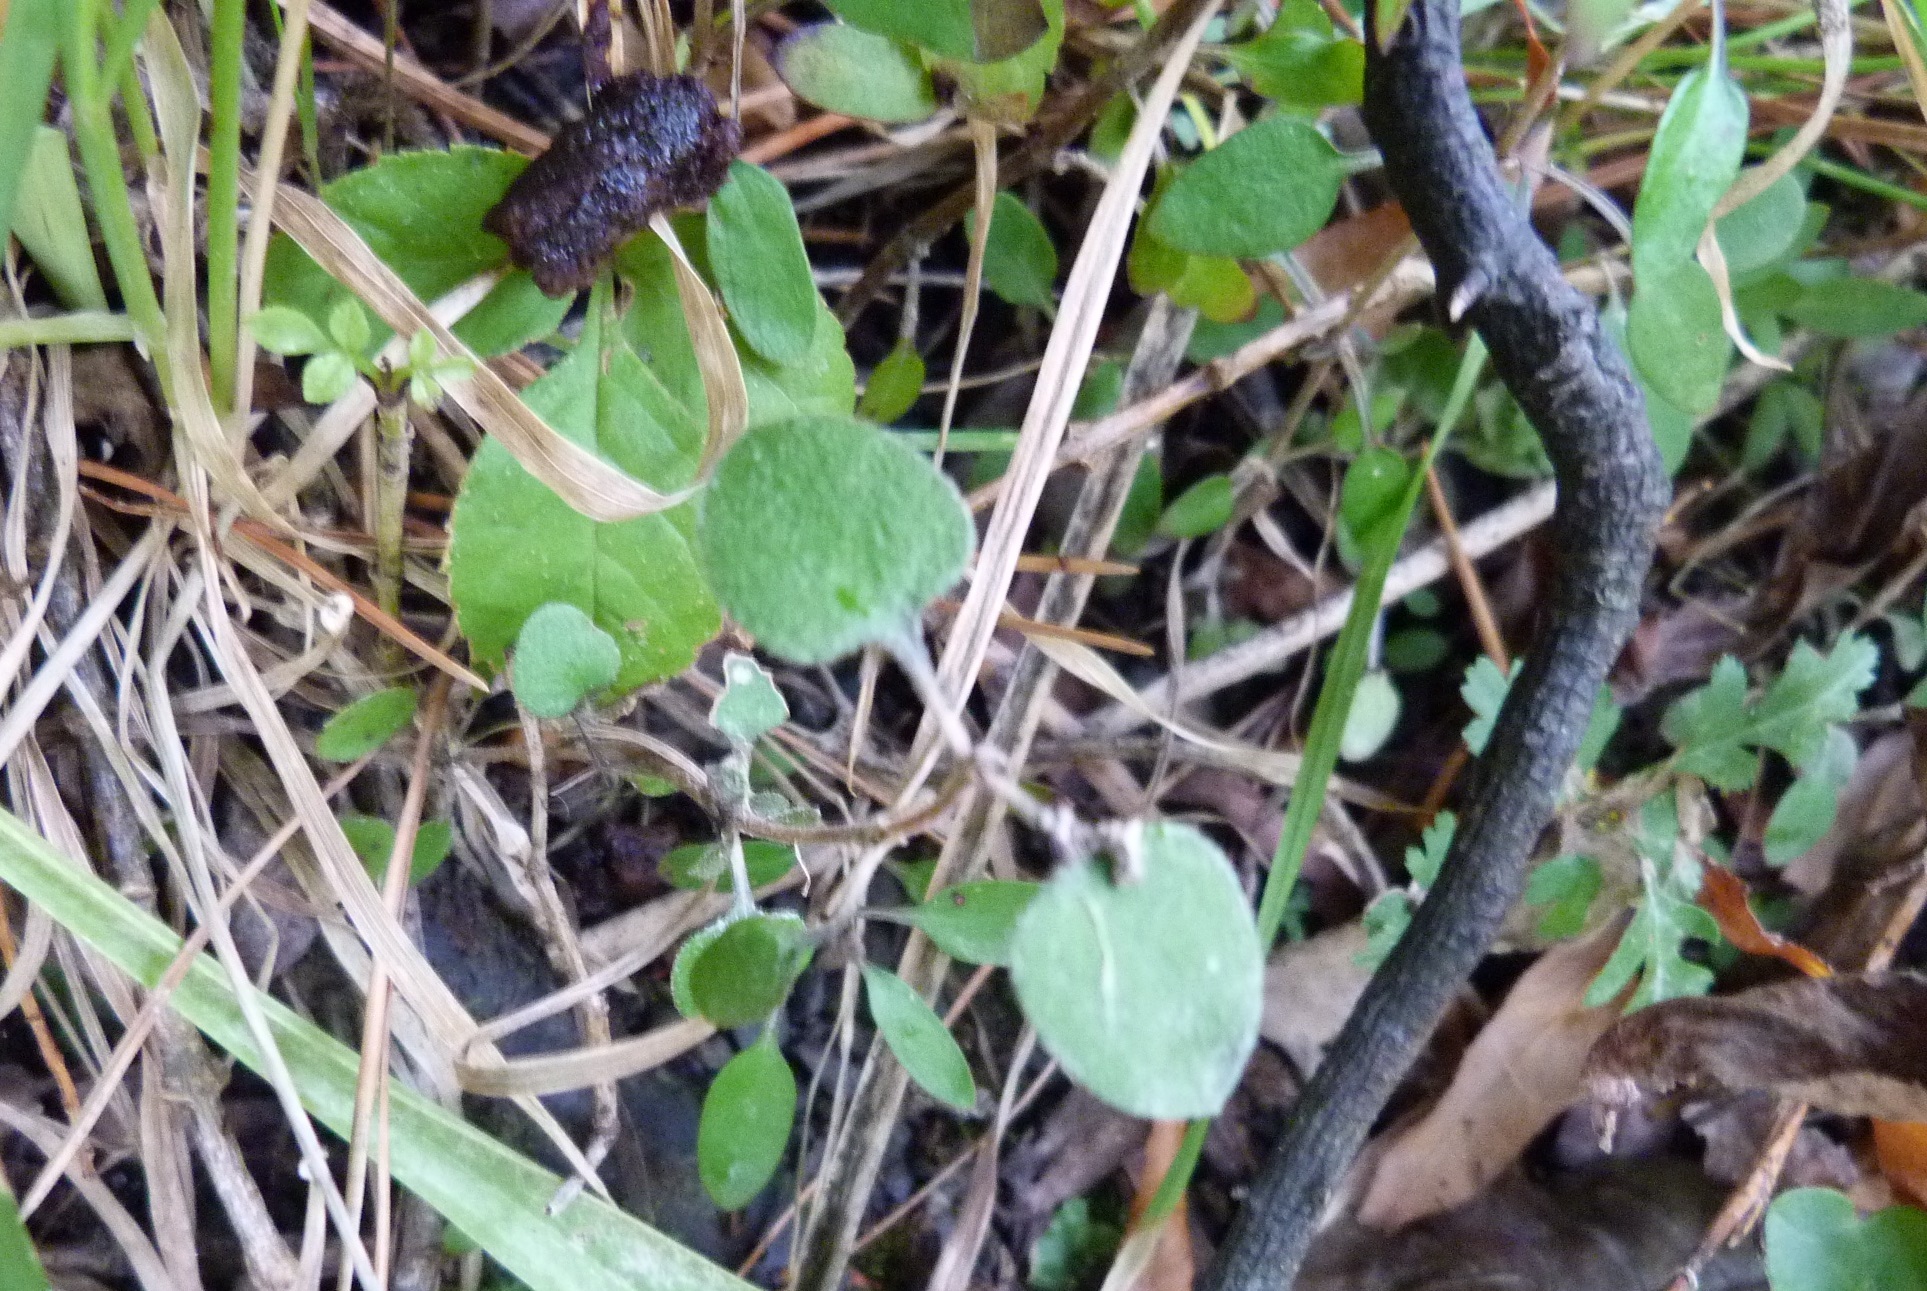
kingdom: Plantae
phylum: Tracheophyta
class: Magnoliopsida
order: Gentianales
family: Rubiaceae
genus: Coprosma
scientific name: Coprosma rotundifolia
